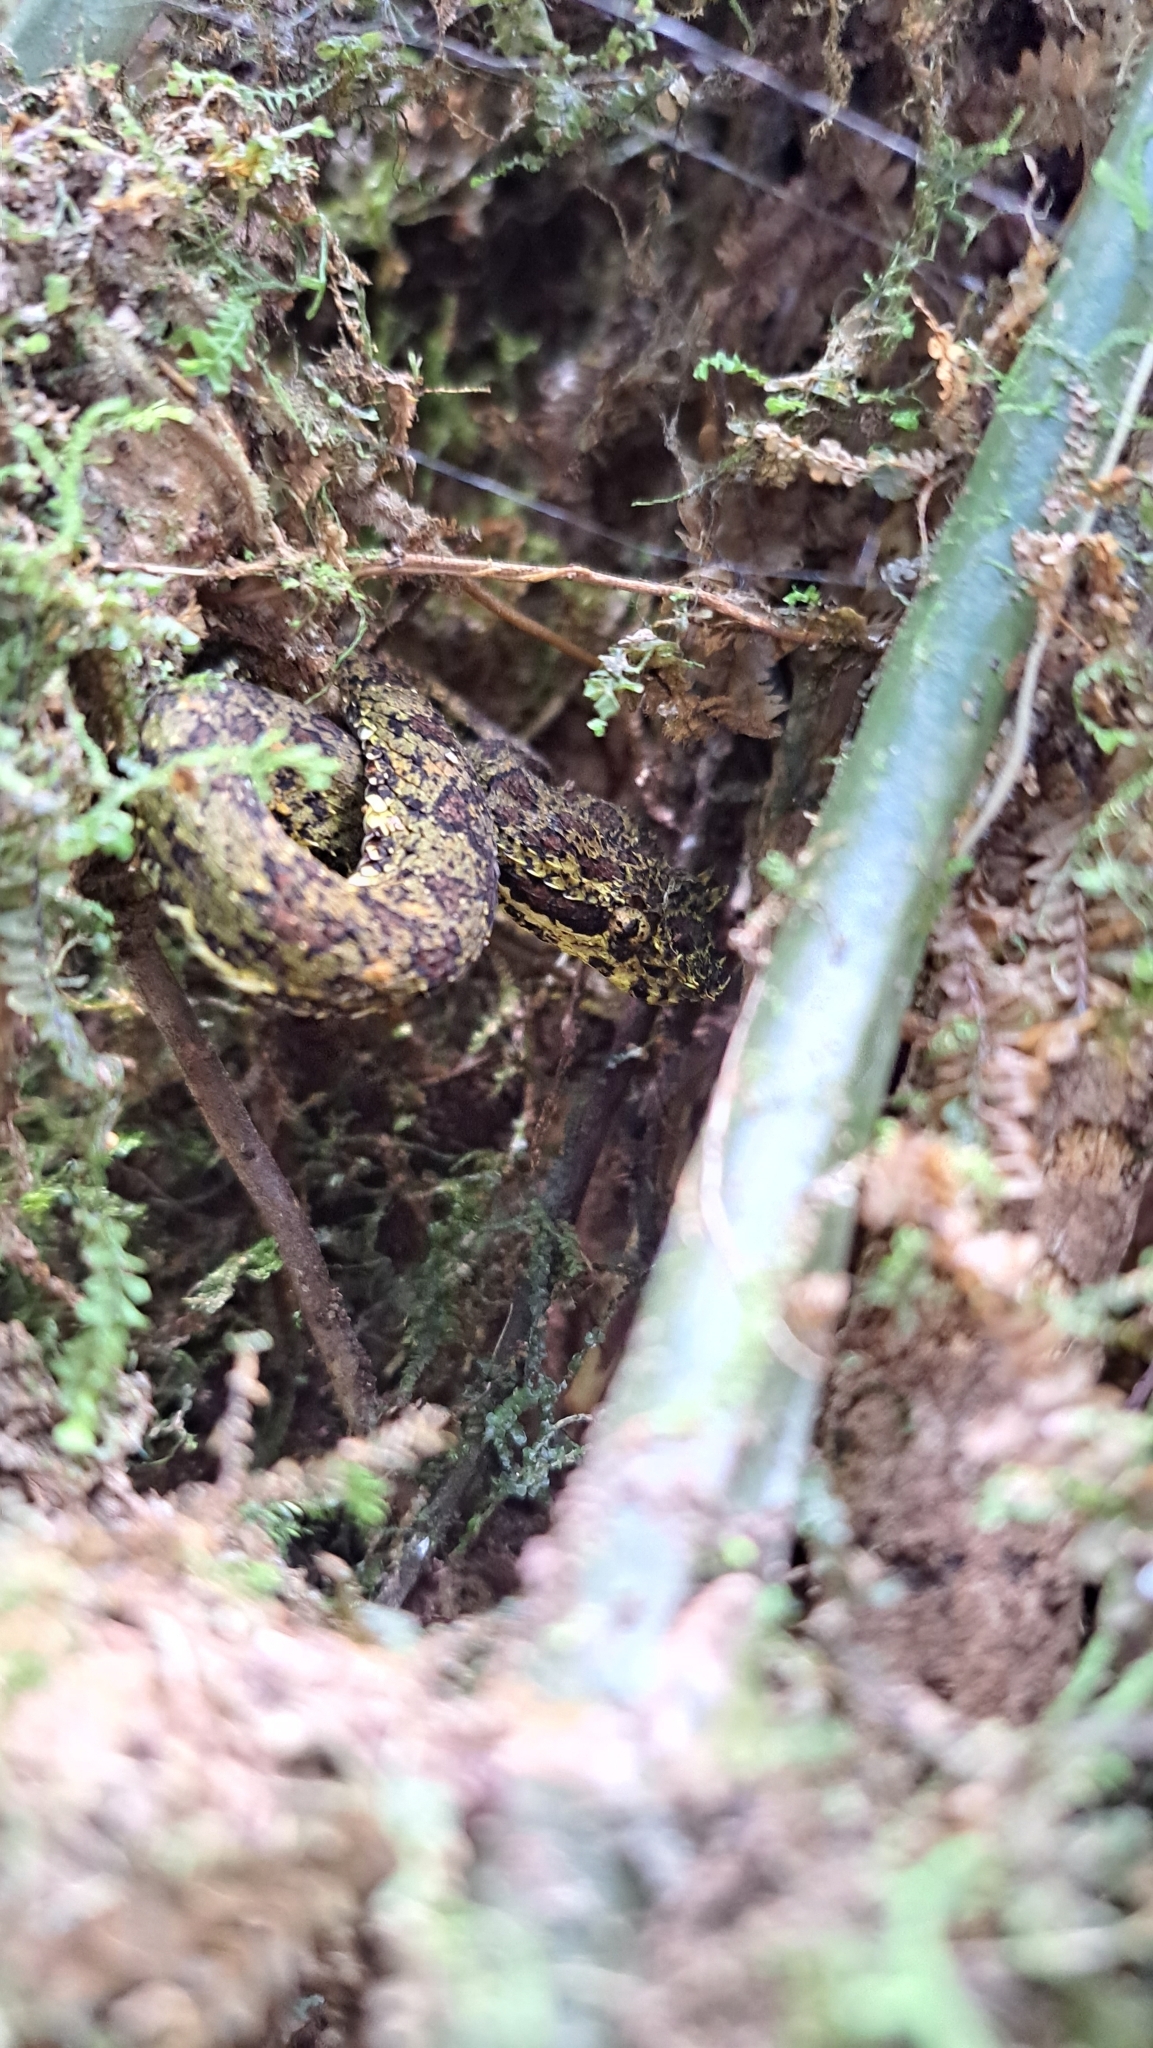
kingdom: Animalia
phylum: Chordata
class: Squamata
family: Viperidae
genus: Bothriechis
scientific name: Bothriechis schlegelii
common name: Eyelash viper
